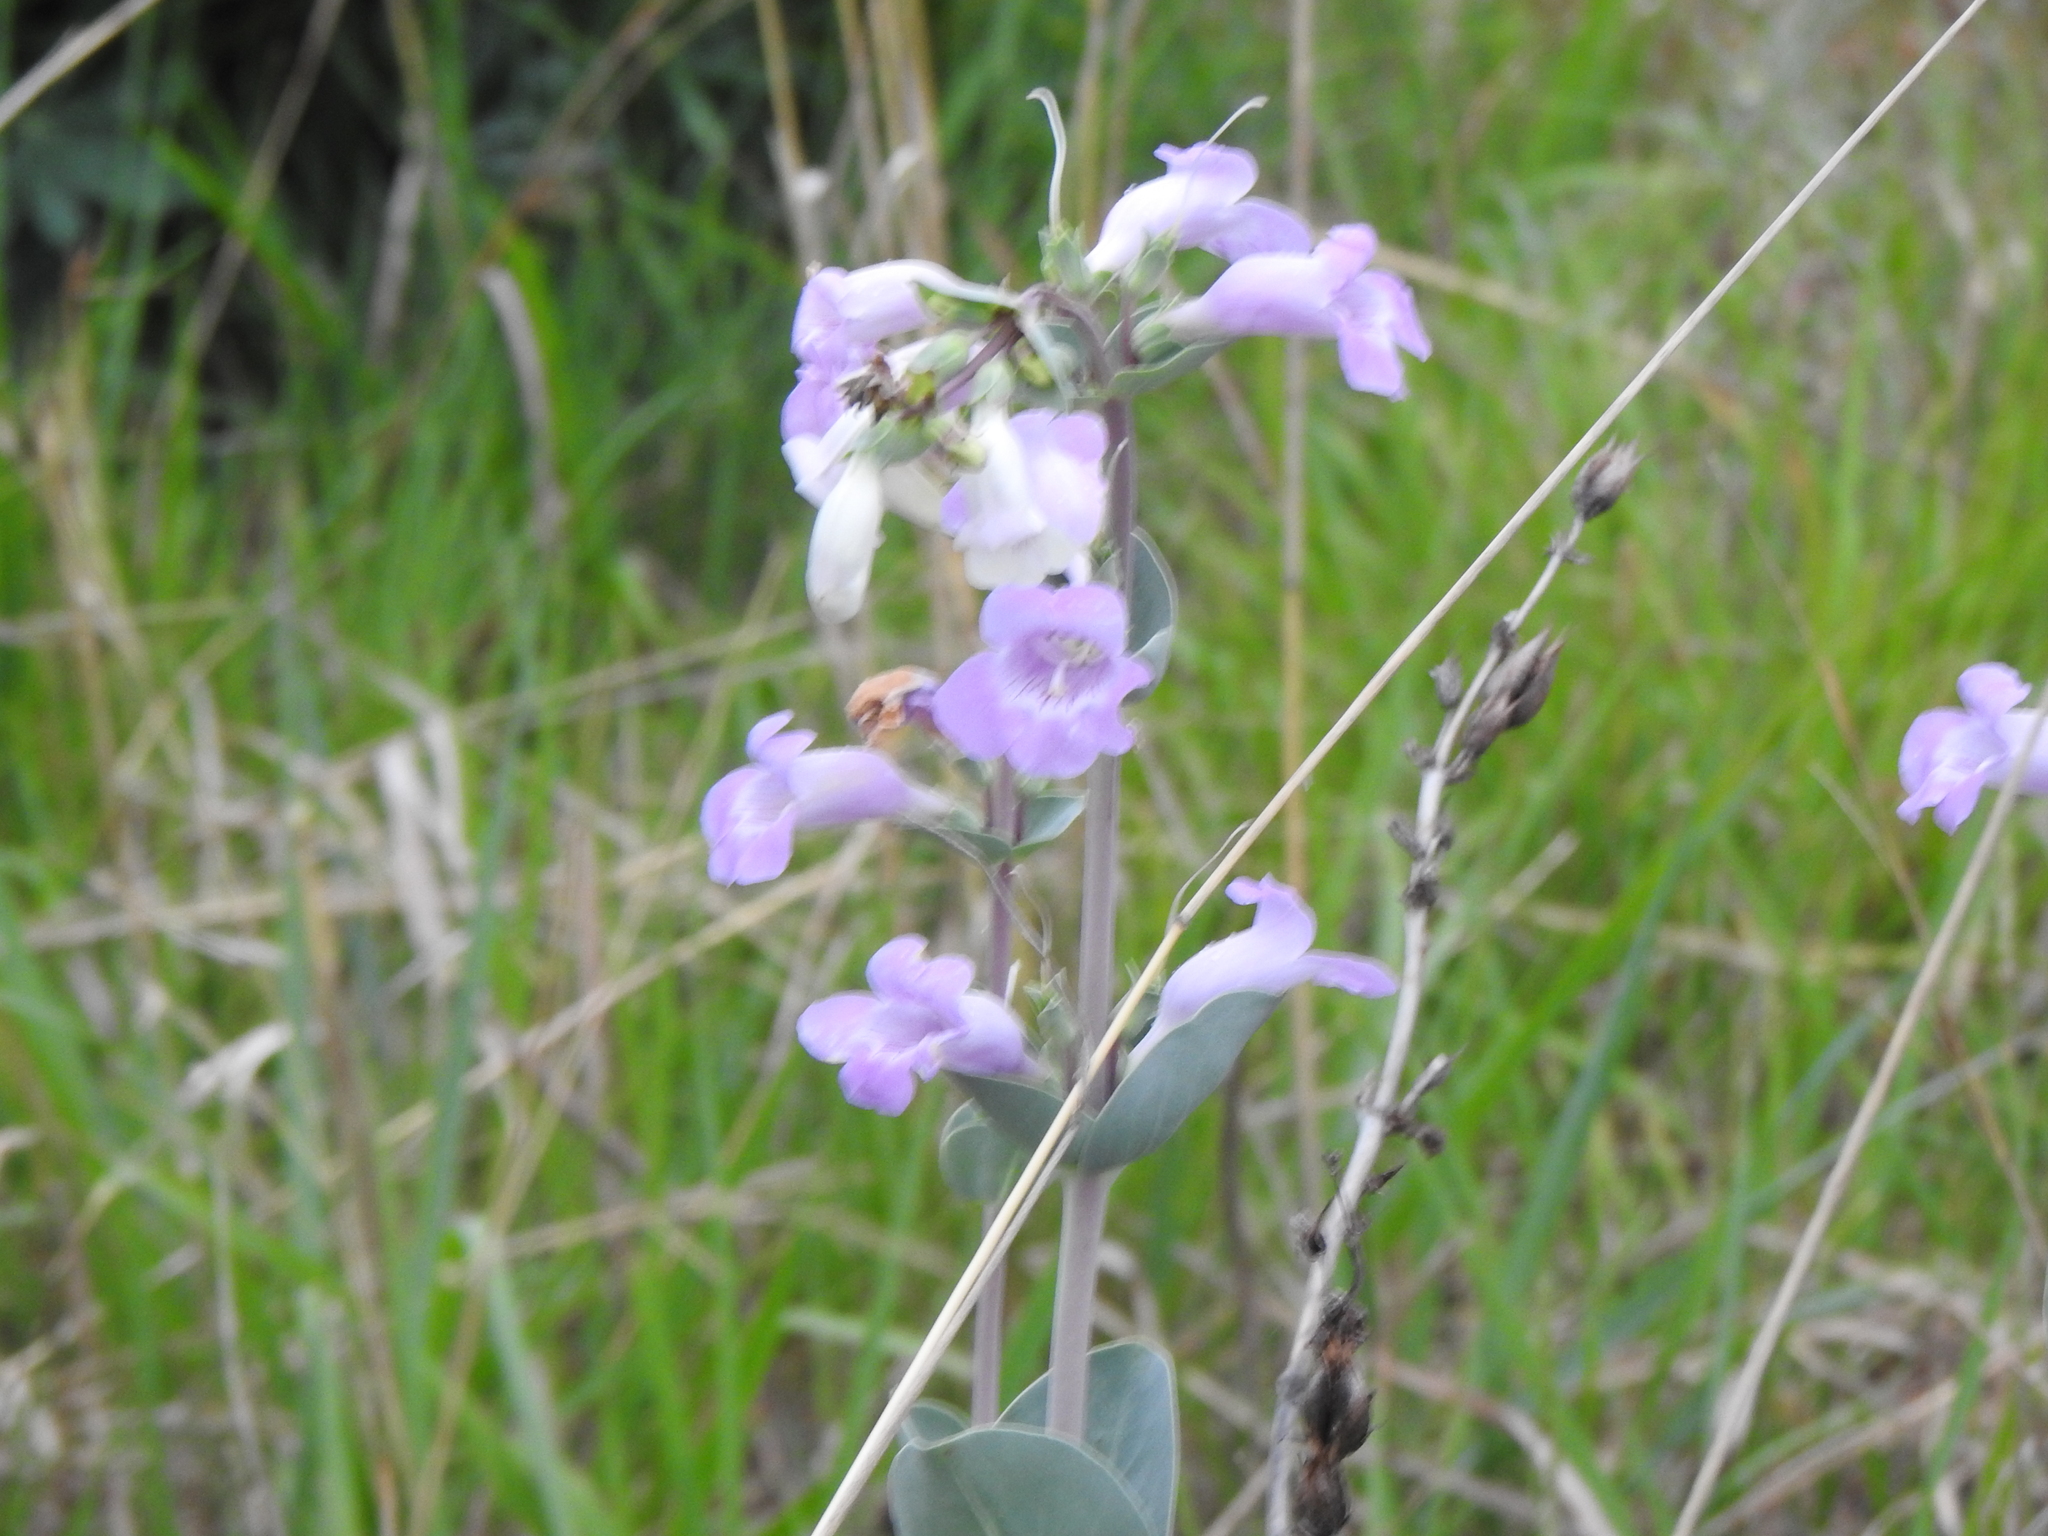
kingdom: Plantae
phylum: Tracheophyta
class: Magnoliopsida
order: Lamiales
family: Plantaginaceae
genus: Penstemon
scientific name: Penstemon
